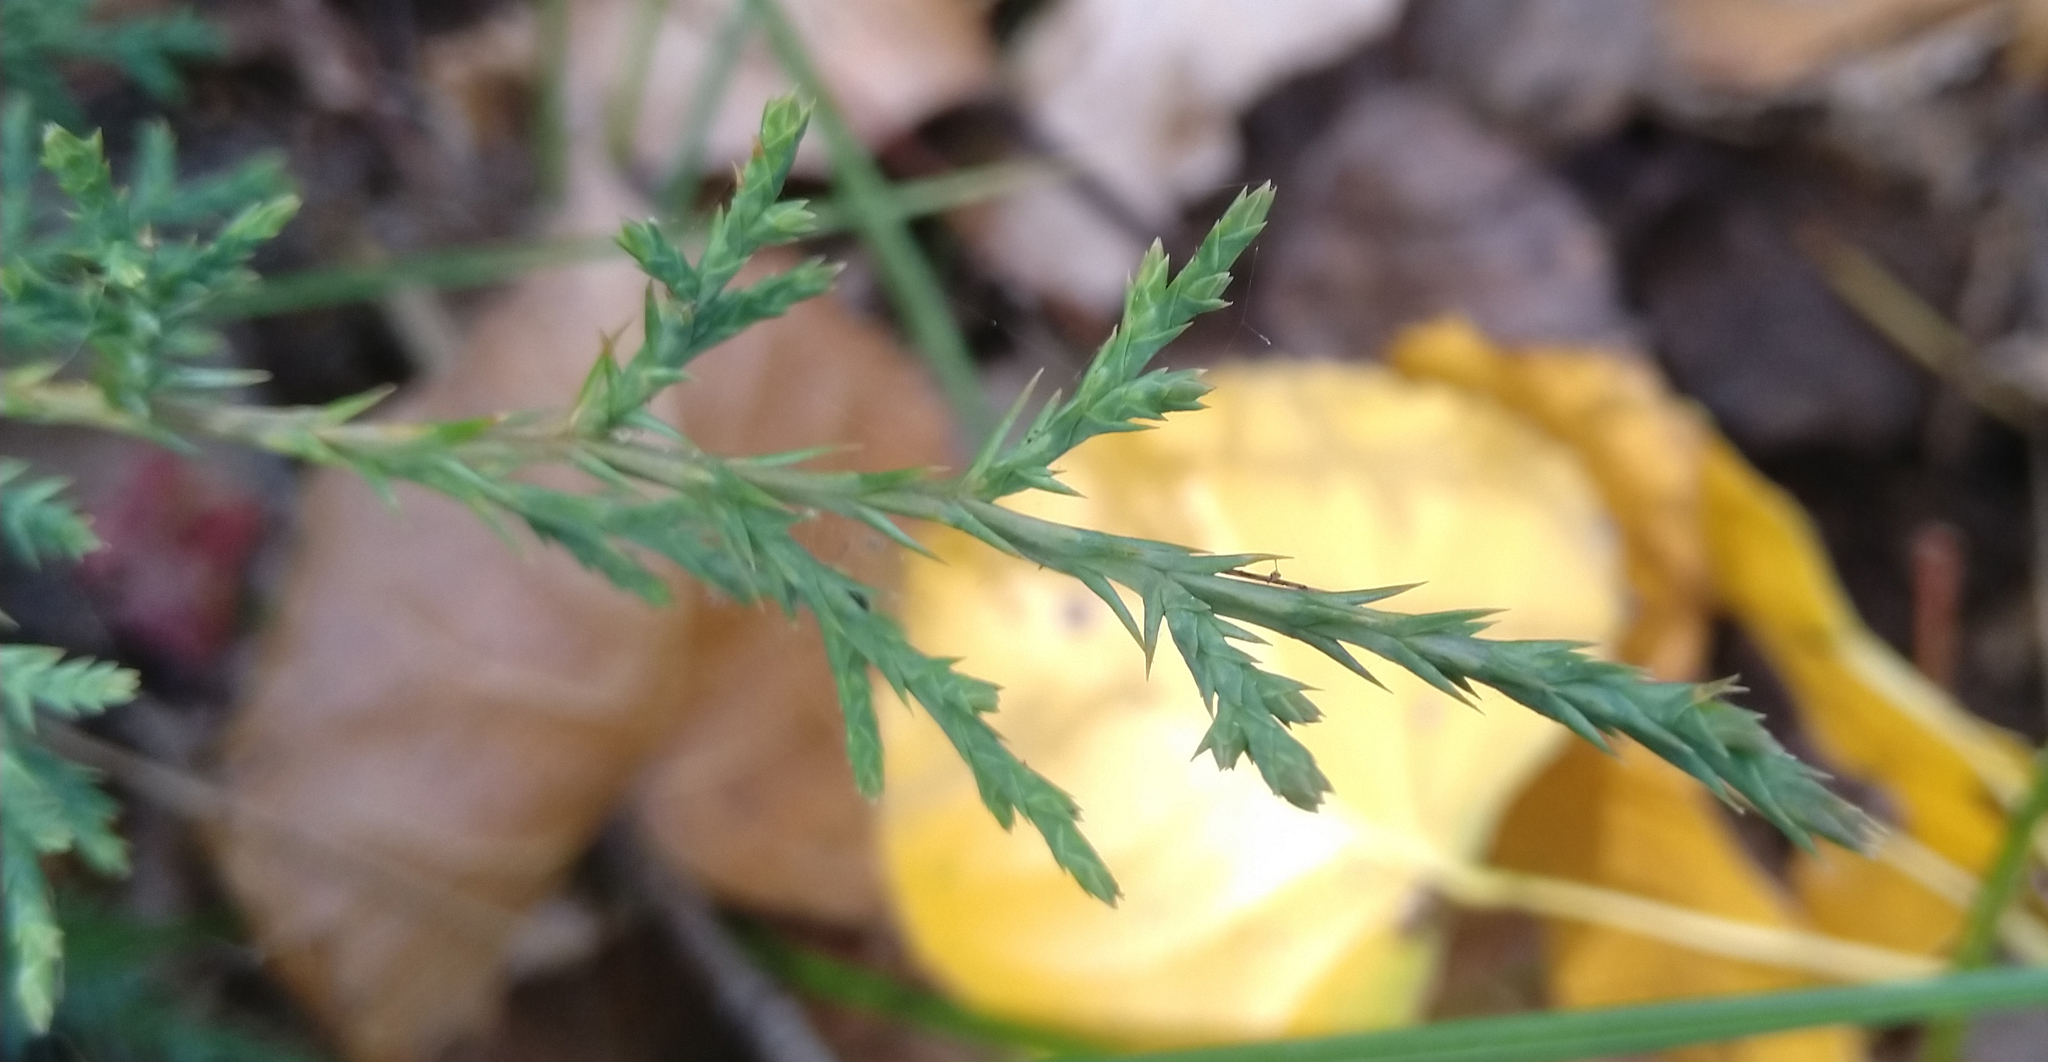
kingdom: Plantae
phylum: Tracheophyta
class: Pinopsida
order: Pinales
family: Cupressaceae
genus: Juniperus
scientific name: Juniperus virginiana
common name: Red juniper
